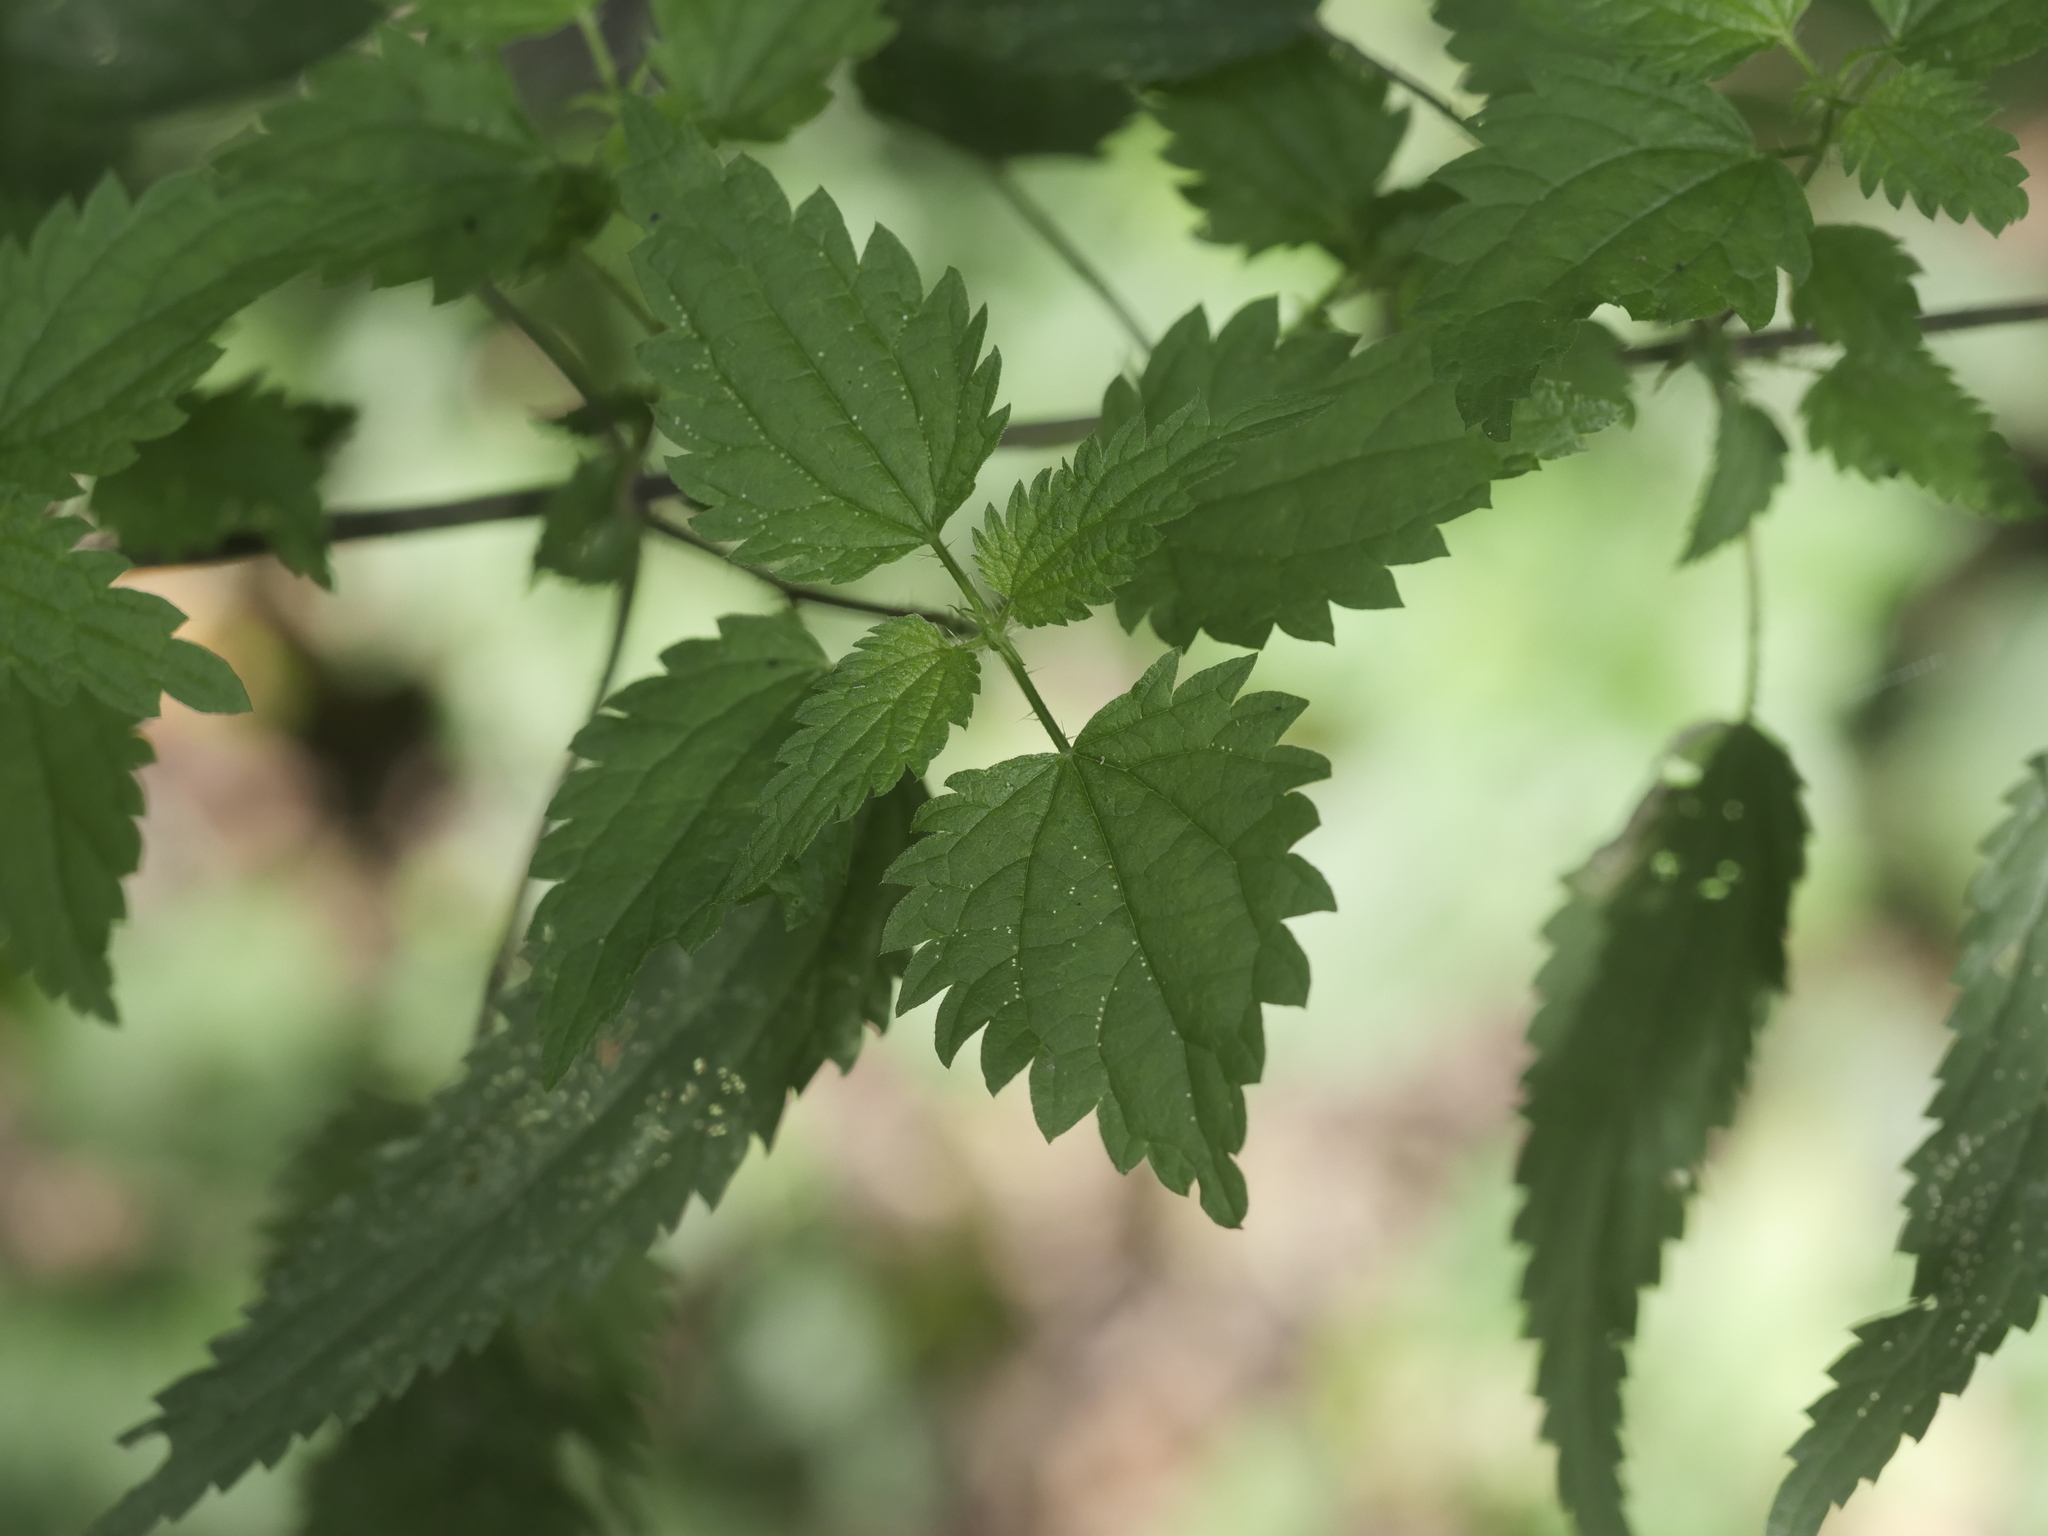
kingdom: Plantae
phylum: Tracheophyta
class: Magnoliopsida
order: Rosales
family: Urticaceae
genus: Urtica
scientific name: Urtica dioica
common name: Common nettle
